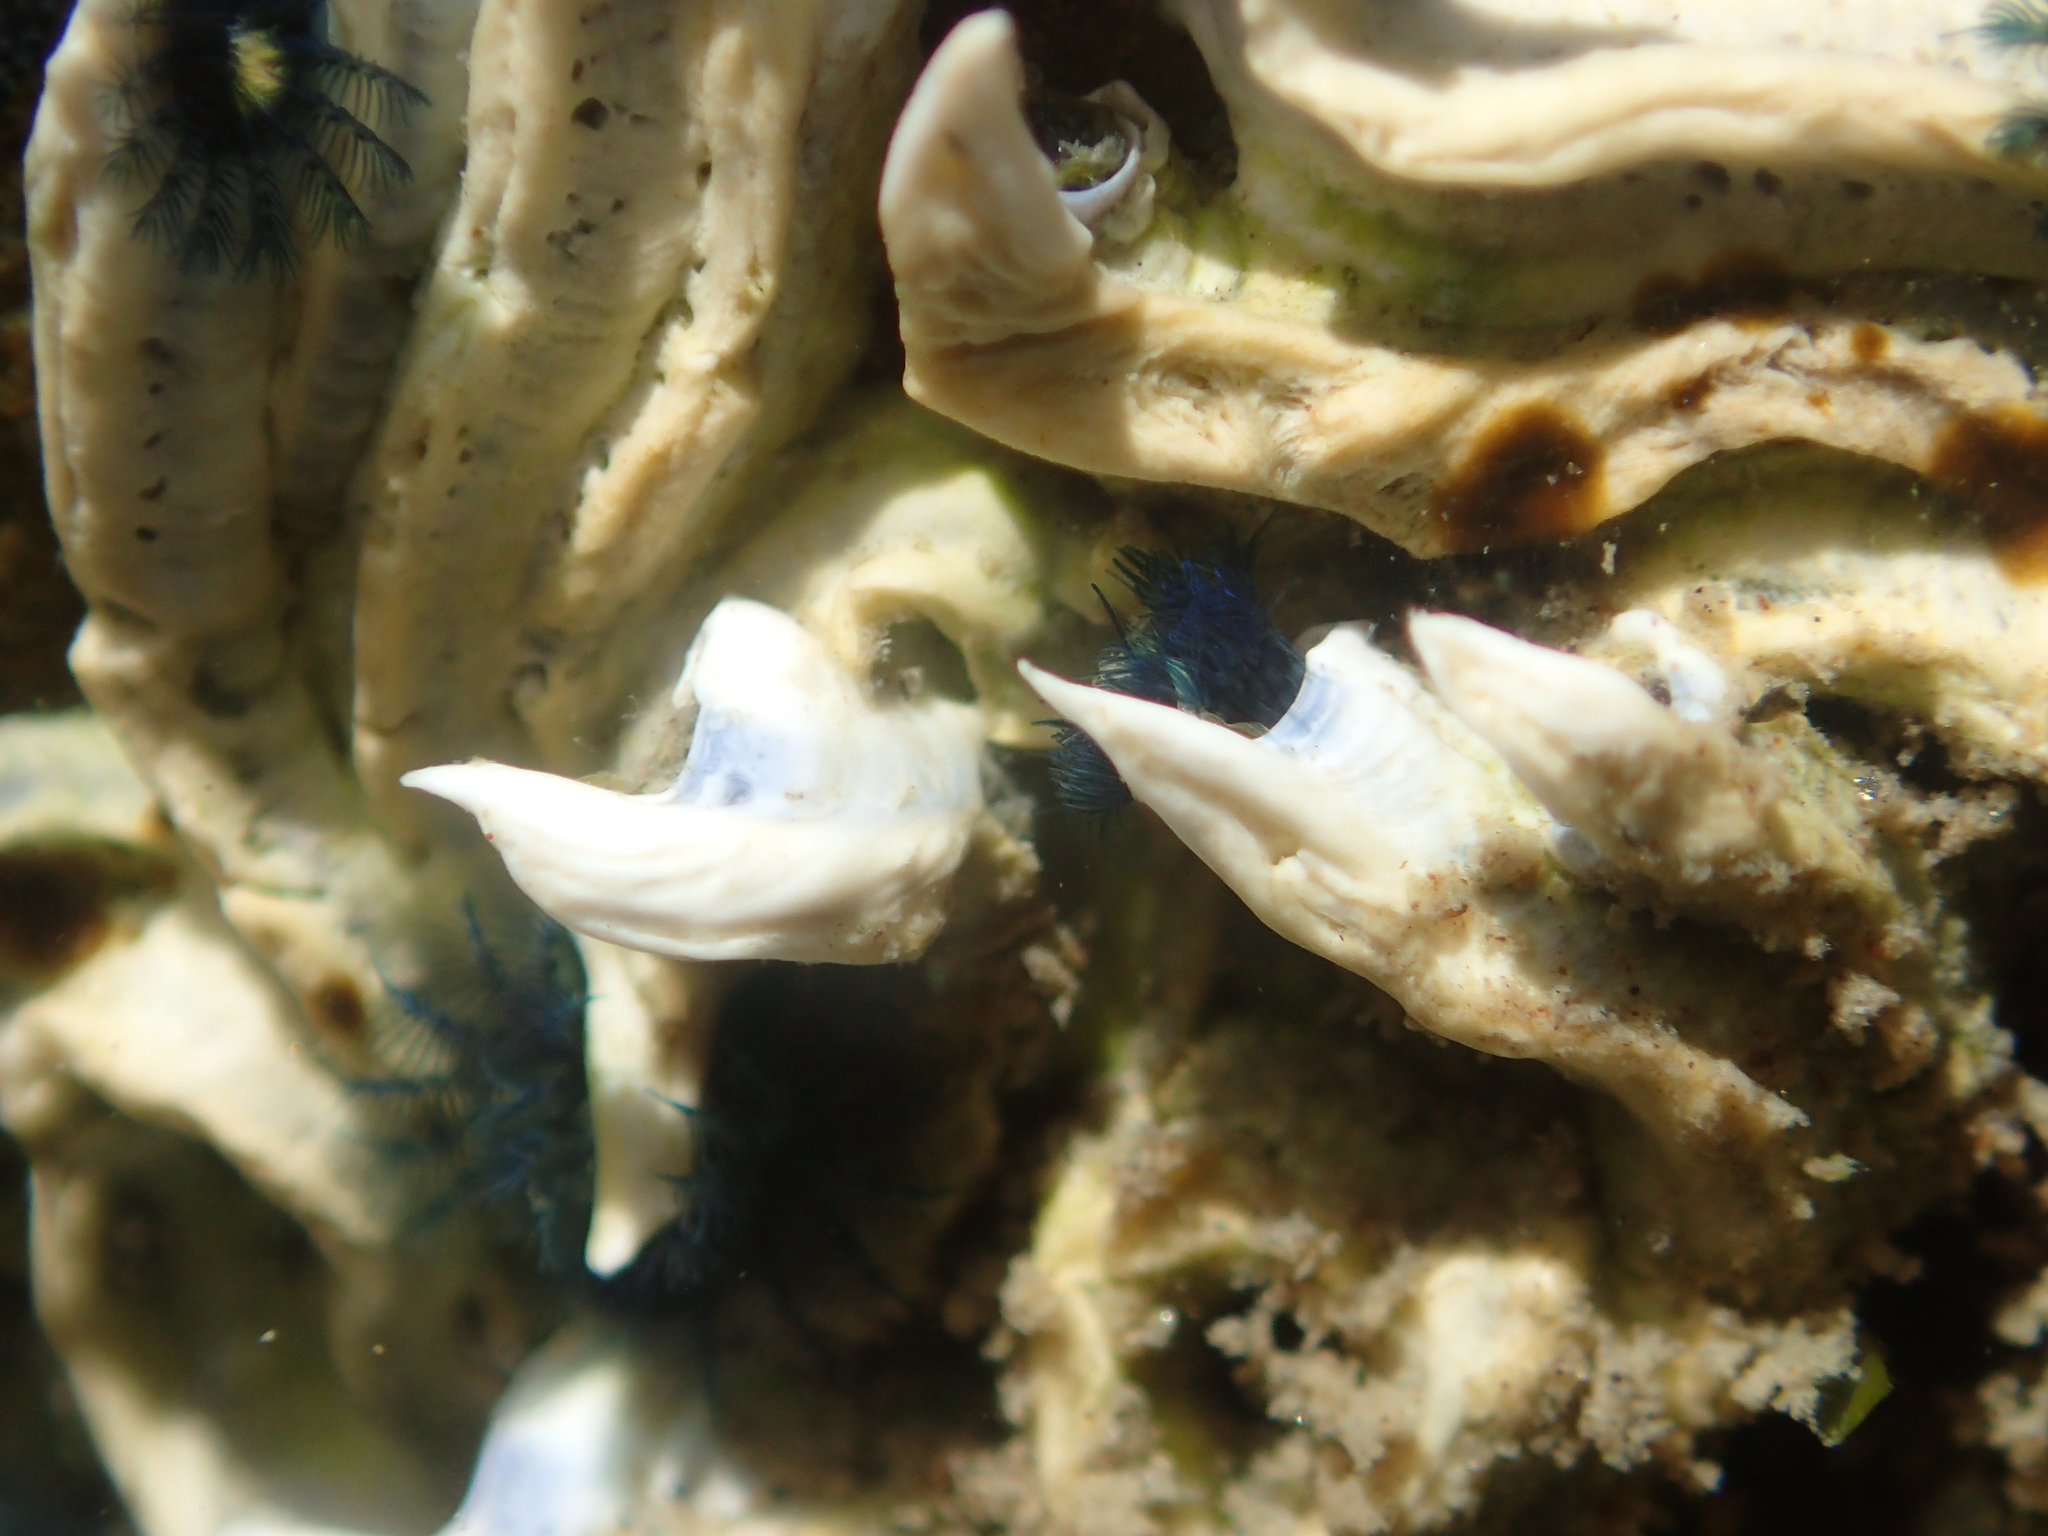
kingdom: Animalia
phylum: Annelida
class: Polychaeta
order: Sabellida
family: Serpulidae
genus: Spirobranchus
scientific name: Spirobranchus cariniferus
